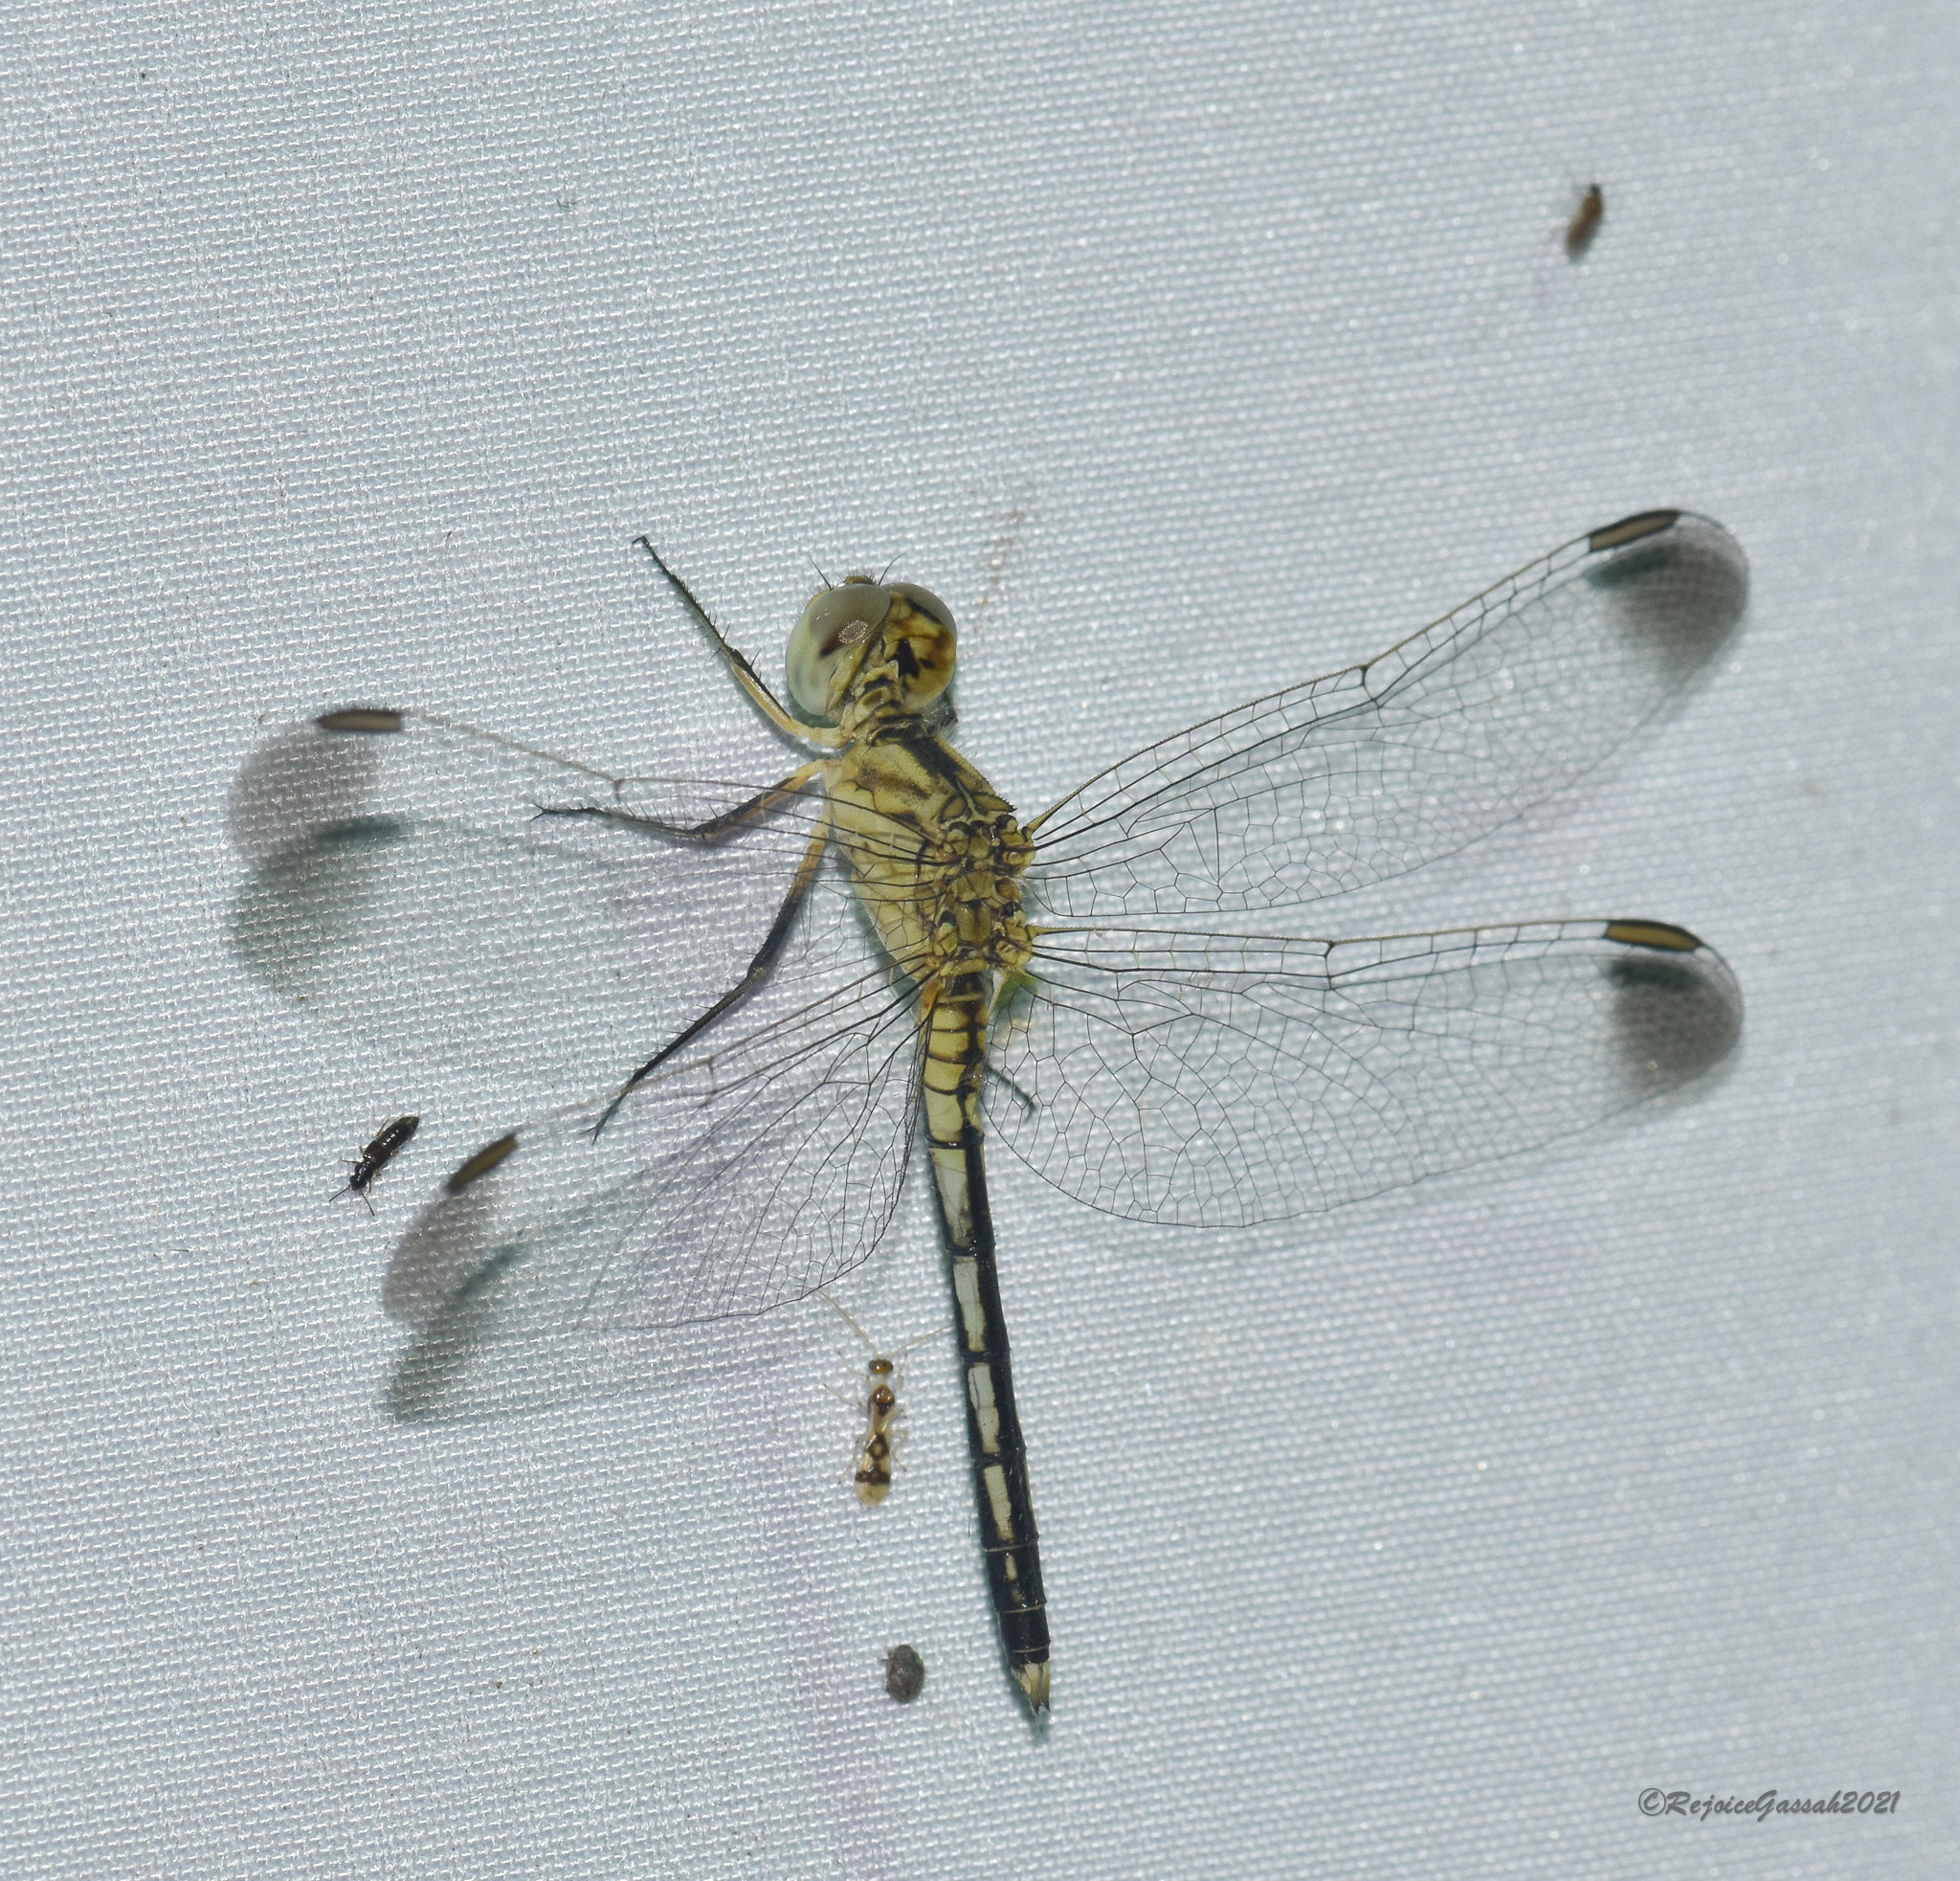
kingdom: Animalia
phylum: Arthropoda
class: Insecta
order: Odonata
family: Libellulidae
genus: Diplacodes
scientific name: Diplacodes nebulosa
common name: Black-tipped percher
